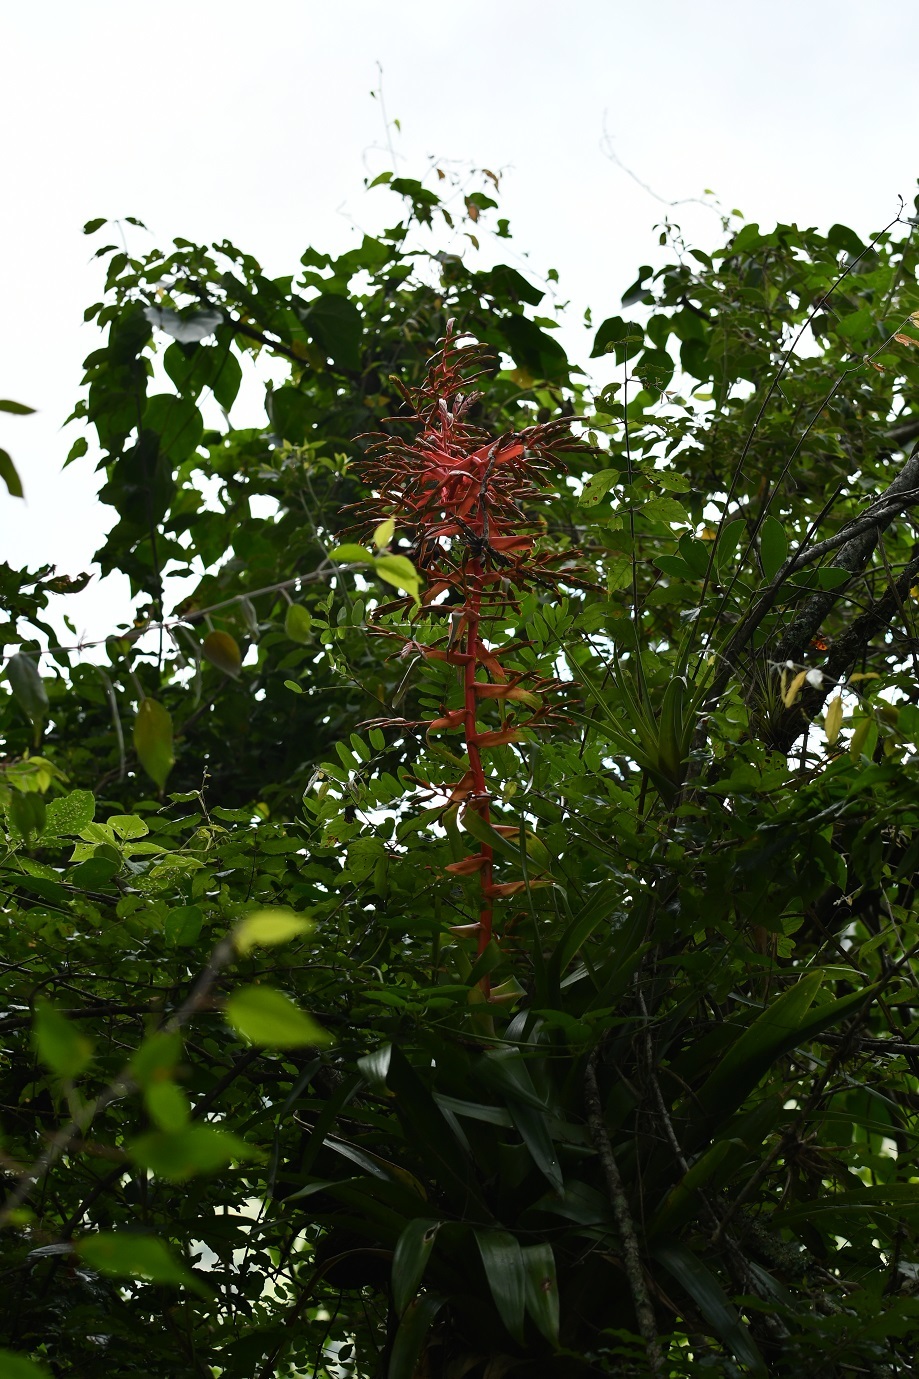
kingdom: Plantae
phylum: Tracheophyta
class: Liliopsida
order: Poales
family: Bromeliaceae
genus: Tillandsia
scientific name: Tillandsia excelsa
